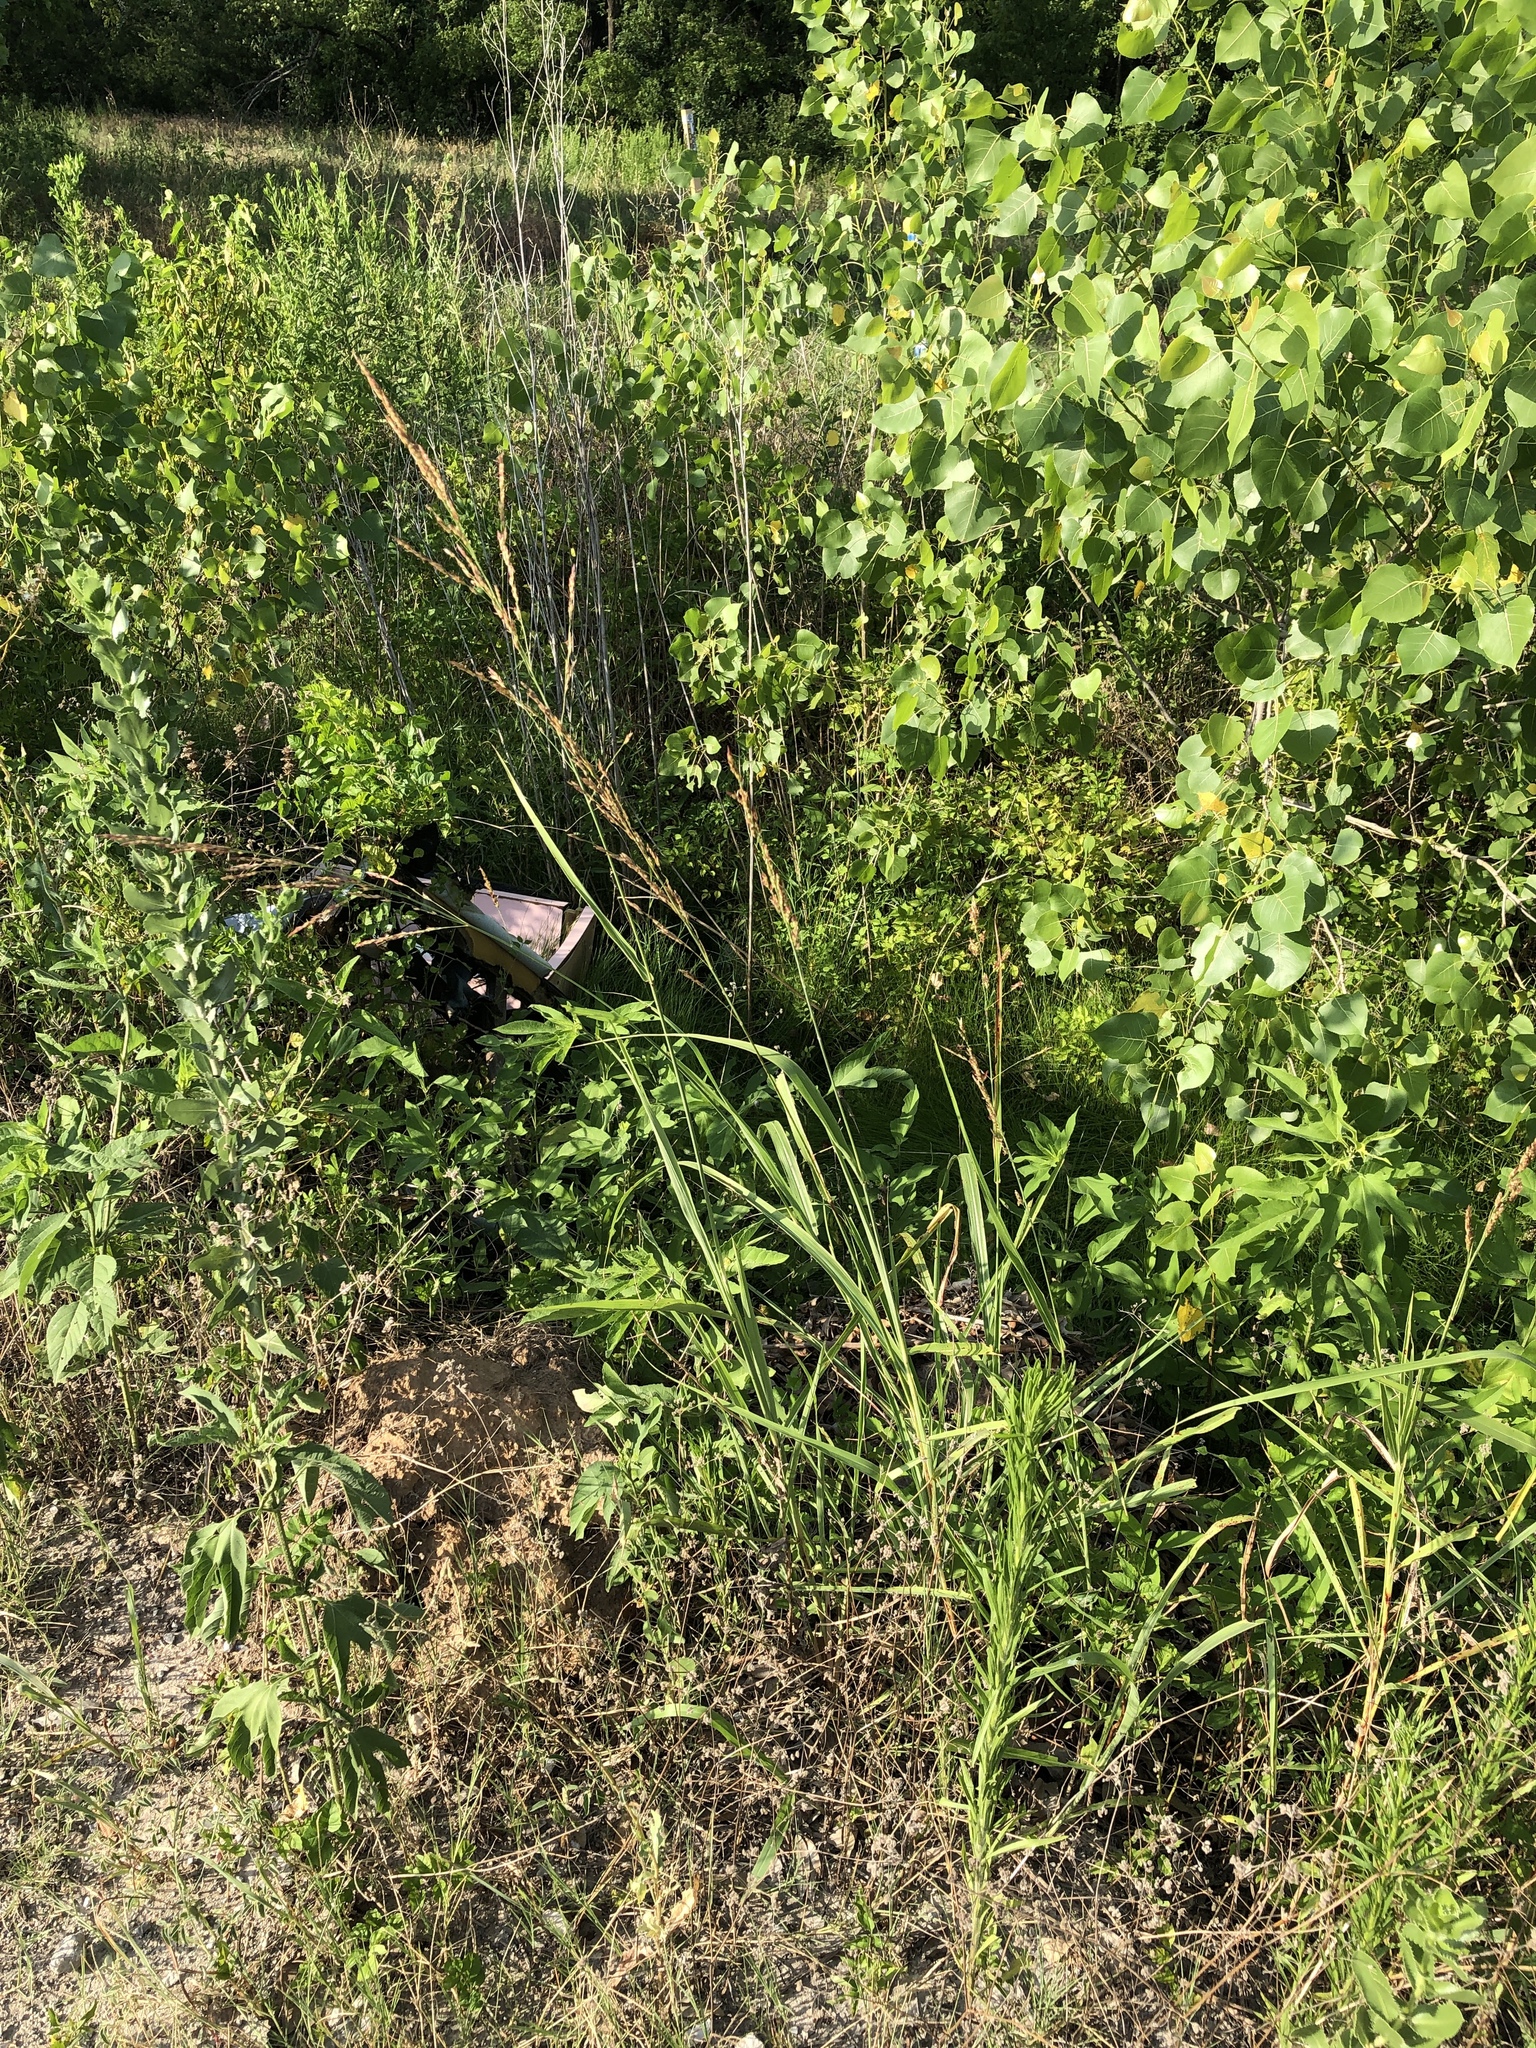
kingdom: Plantae
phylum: Tracheophyta
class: Liliopsida
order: Poales
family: Poaceae
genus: Sorghum
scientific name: Sorghum halepense
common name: Johnson-grass
